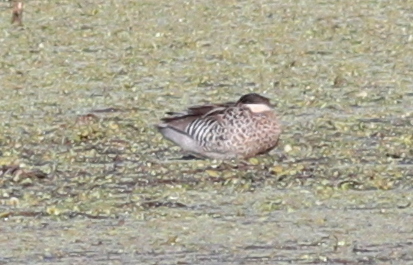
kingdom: Animalia
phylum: Chordata
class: Aves
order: Anseriformes
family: Anatidae
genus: Spatula
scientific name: Spatula versicolor
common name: Silver teal
